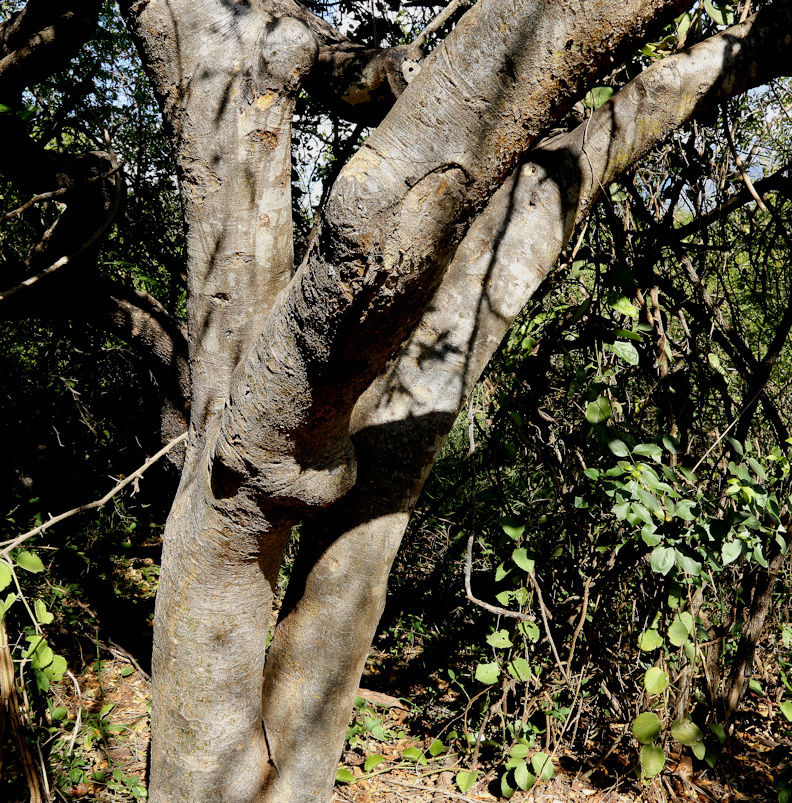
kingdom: Plantae
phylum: Tracheophyta
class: Magnoliopsida
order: Sapindales
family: Burseraceae
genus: Commiphora
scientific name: Commiphora mollis
